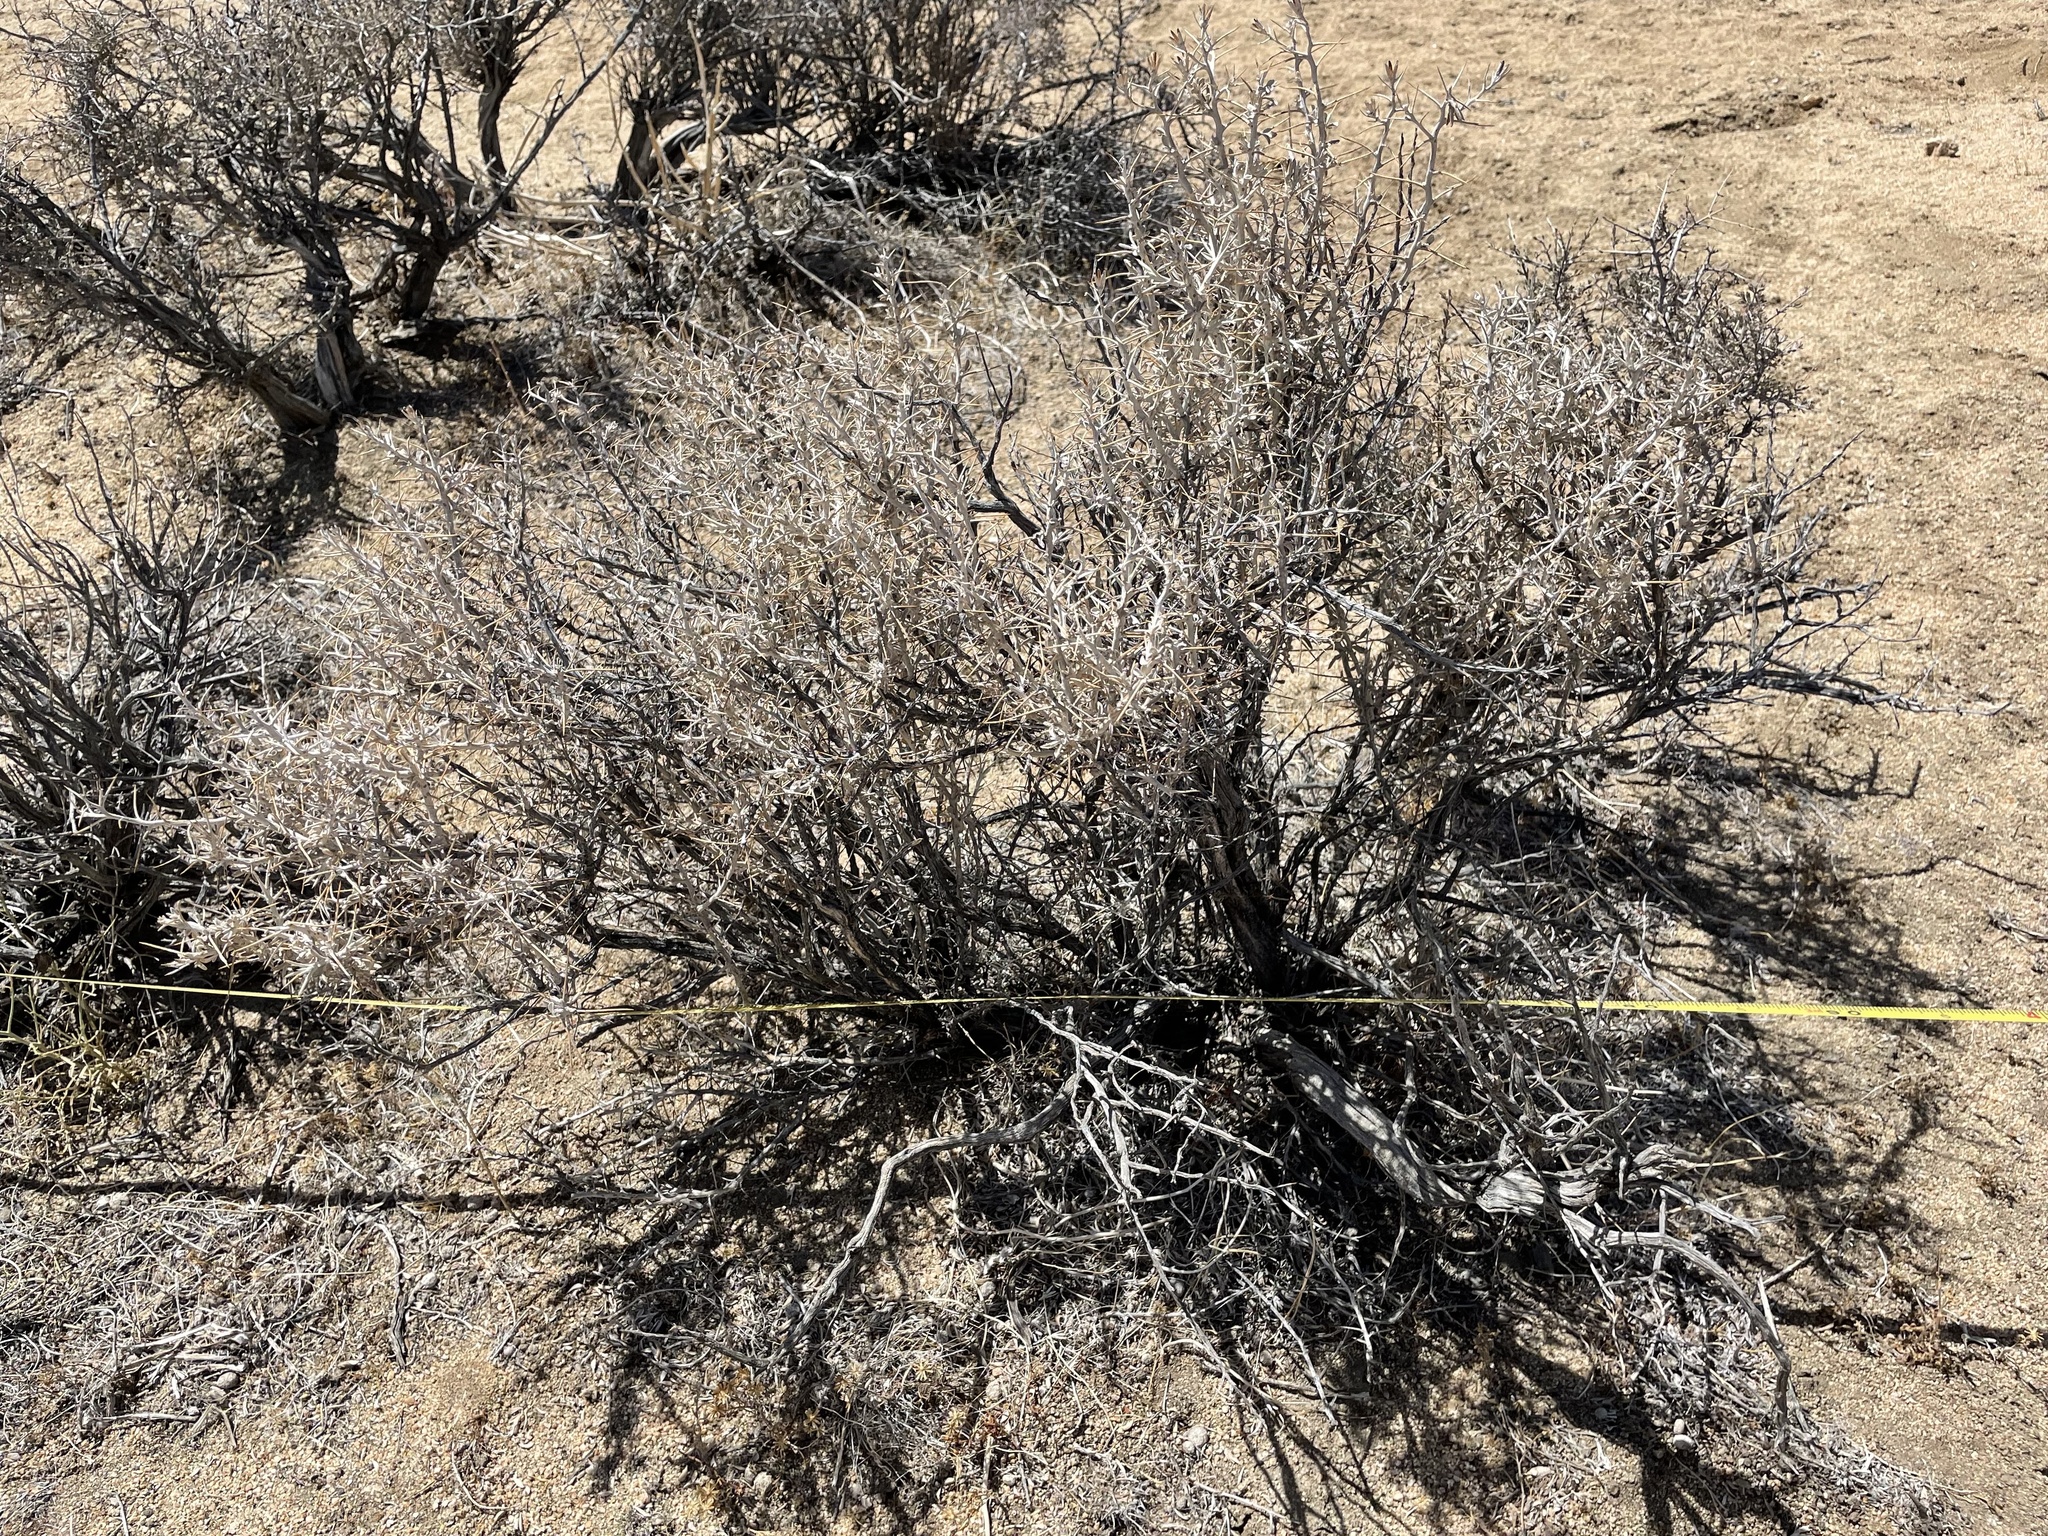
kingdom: Plantae
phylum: Tracheophyta
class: Magnoliopsida
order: Asterales
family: Asteraceae
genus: Tetradymia
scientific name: Tetradymia stenolepis
